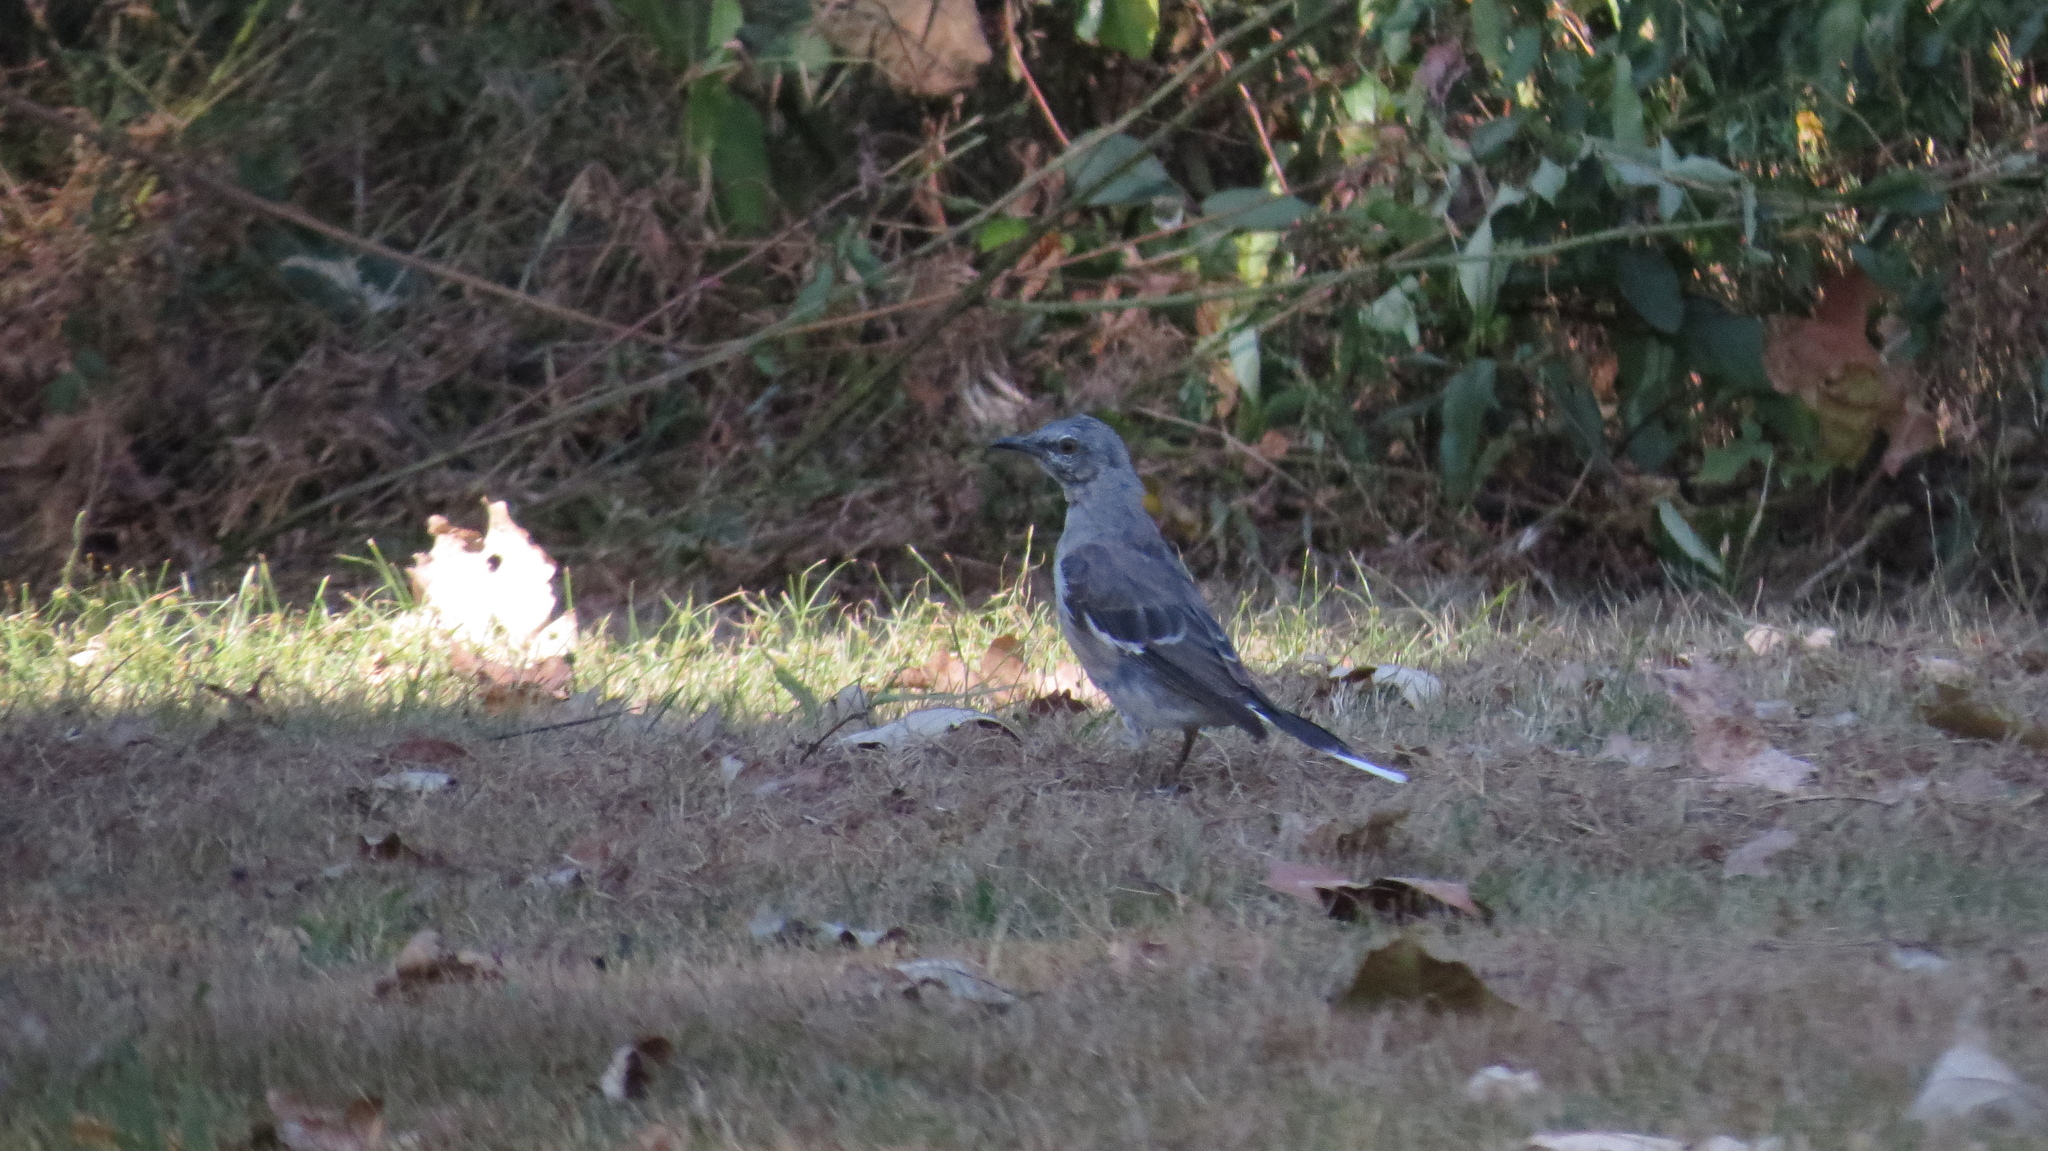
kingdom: Animalia
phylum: Chordata
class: Aves
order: Passeriformes
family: Mimidae
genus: Mimus
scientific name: Mimus polyglottos
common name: Northern mockingbird
